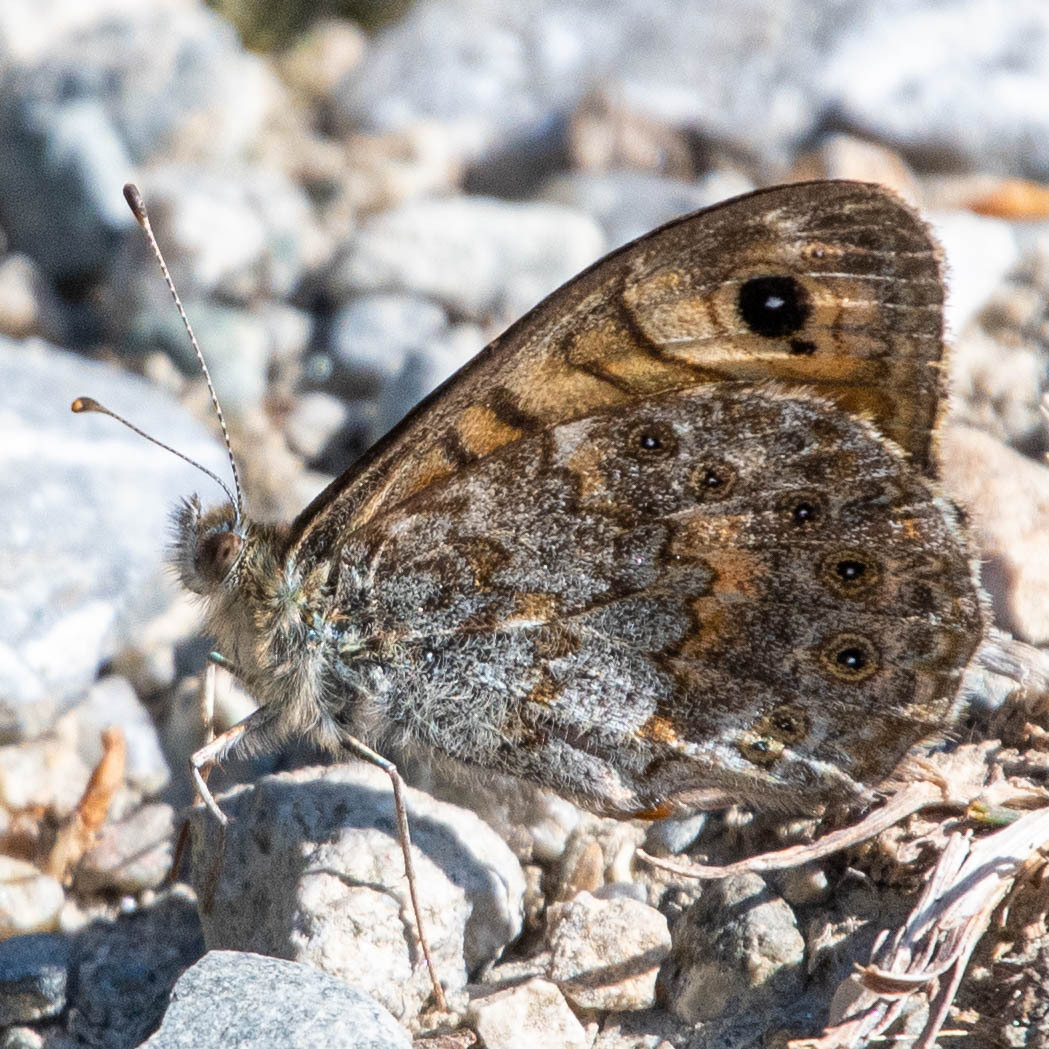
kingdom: Animalia
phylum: Arthropoda
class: Insecta
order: Lepidoptera
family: Nymphalidae
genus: Pararge
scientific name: Pararge Lasiommata megera
